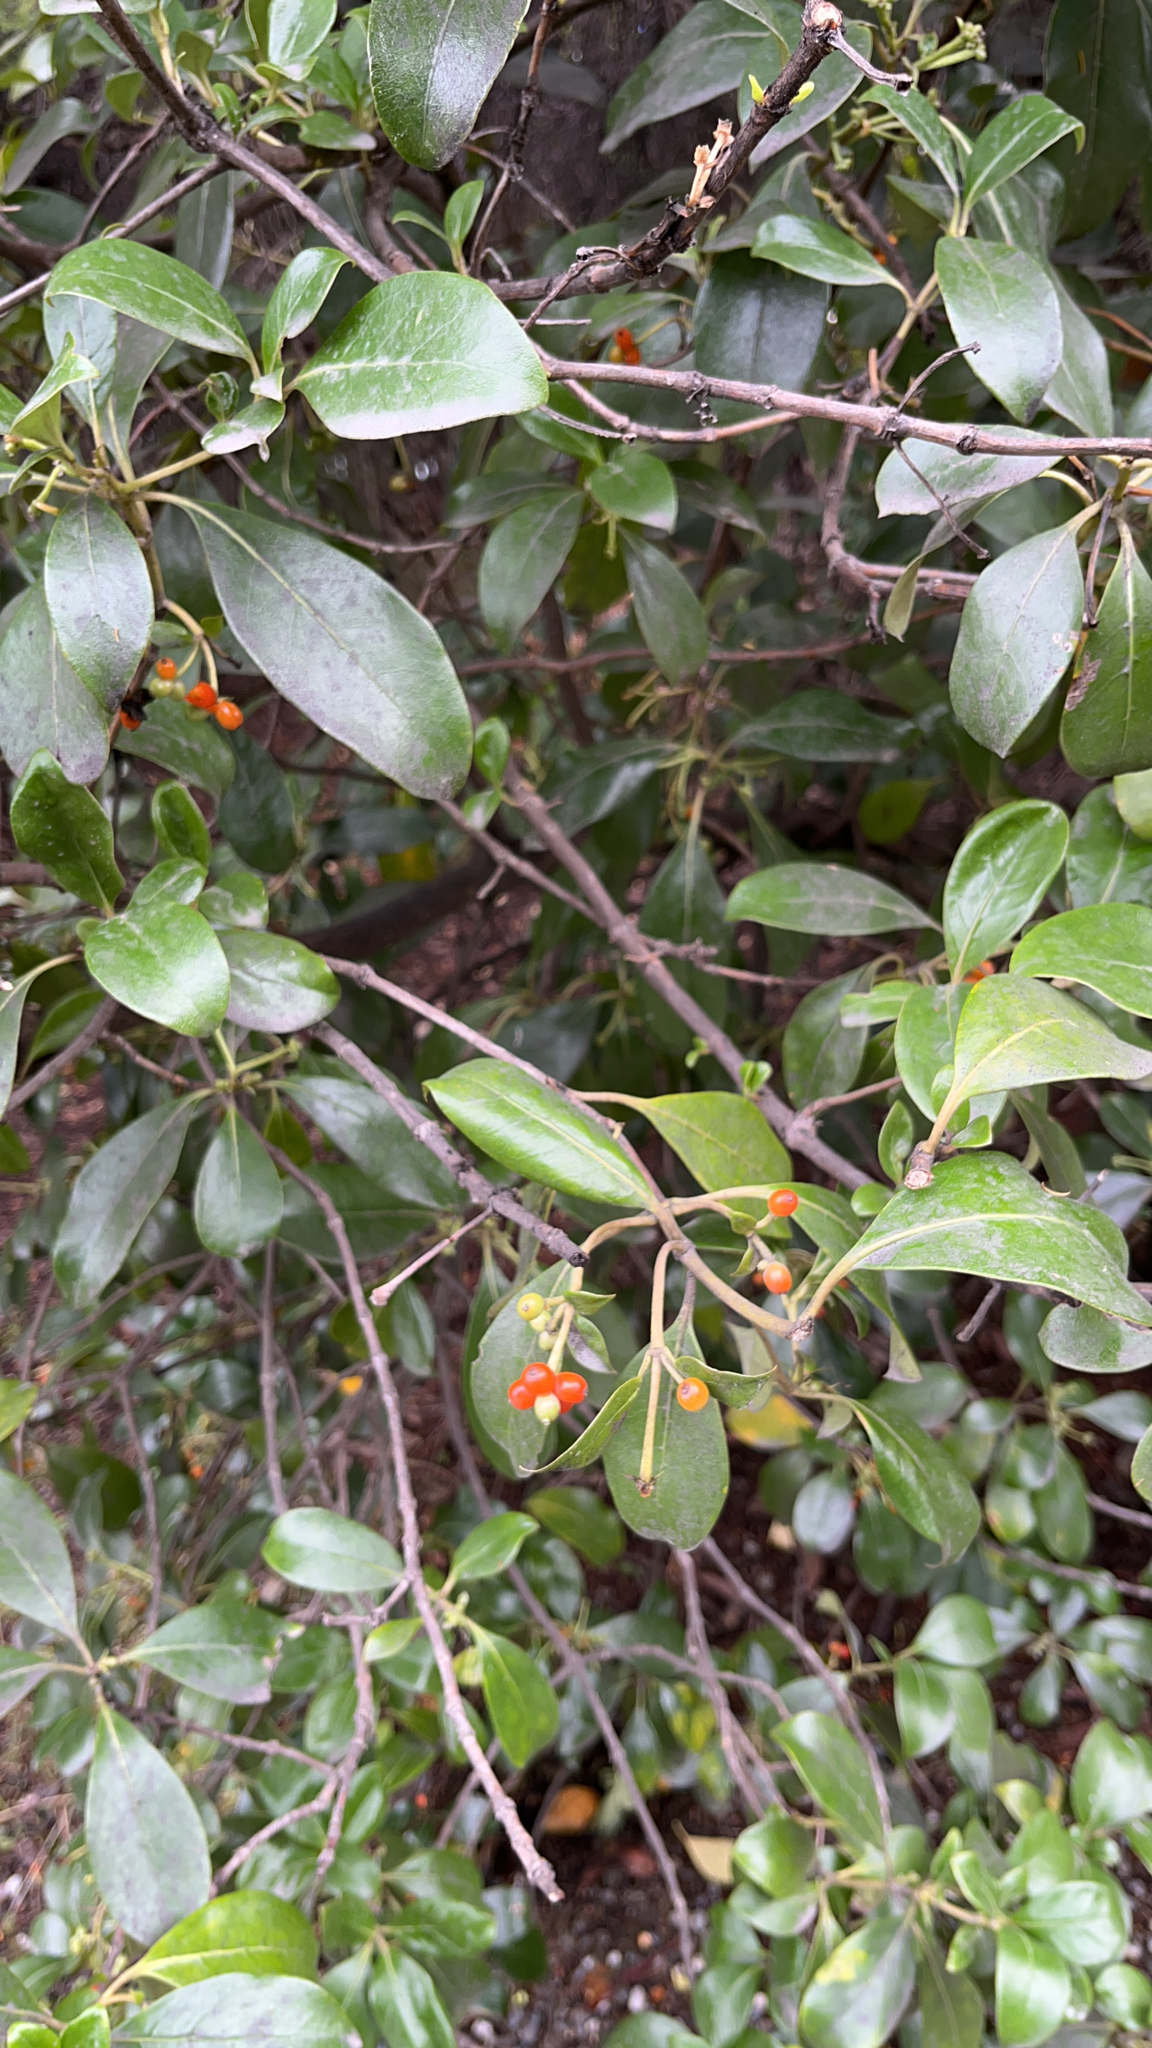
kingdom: Plantae
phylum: Tracheophyta
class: Magnoliopsida
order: Gentianales
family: Rubiaceae
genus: Coprosma
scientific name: Coprosma lucida
